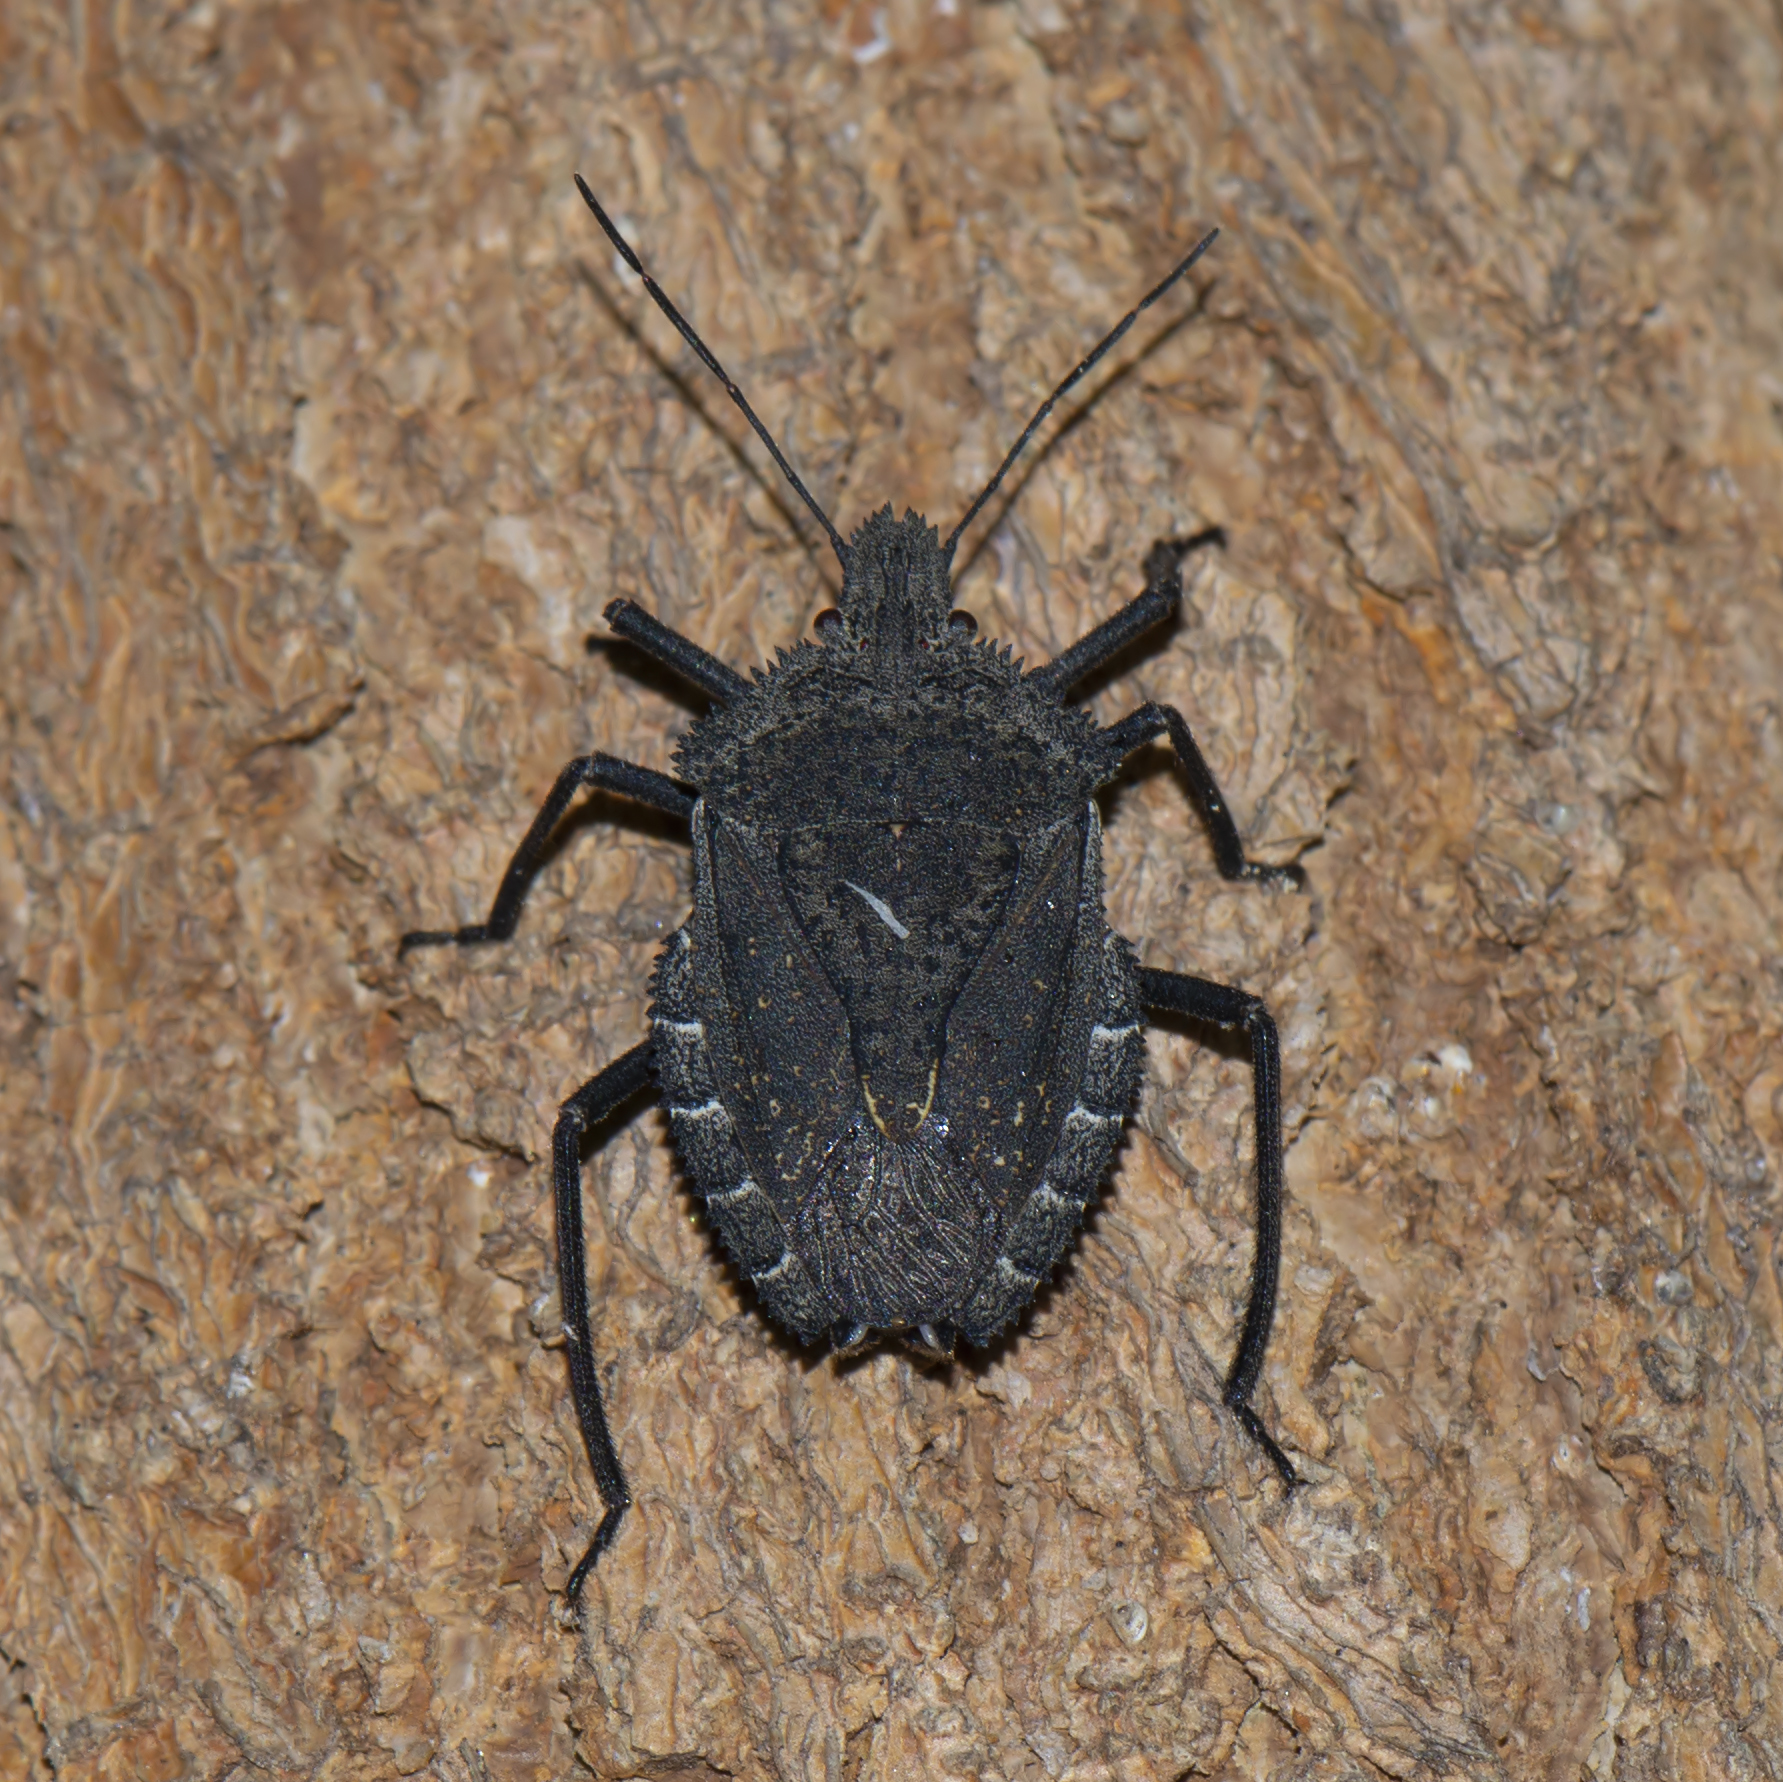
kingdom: Animalia
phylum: Arthropoda
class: Insecta
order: Hemiptera
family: Pentatomidae
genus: Mustha
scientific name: Mustha spinosula
